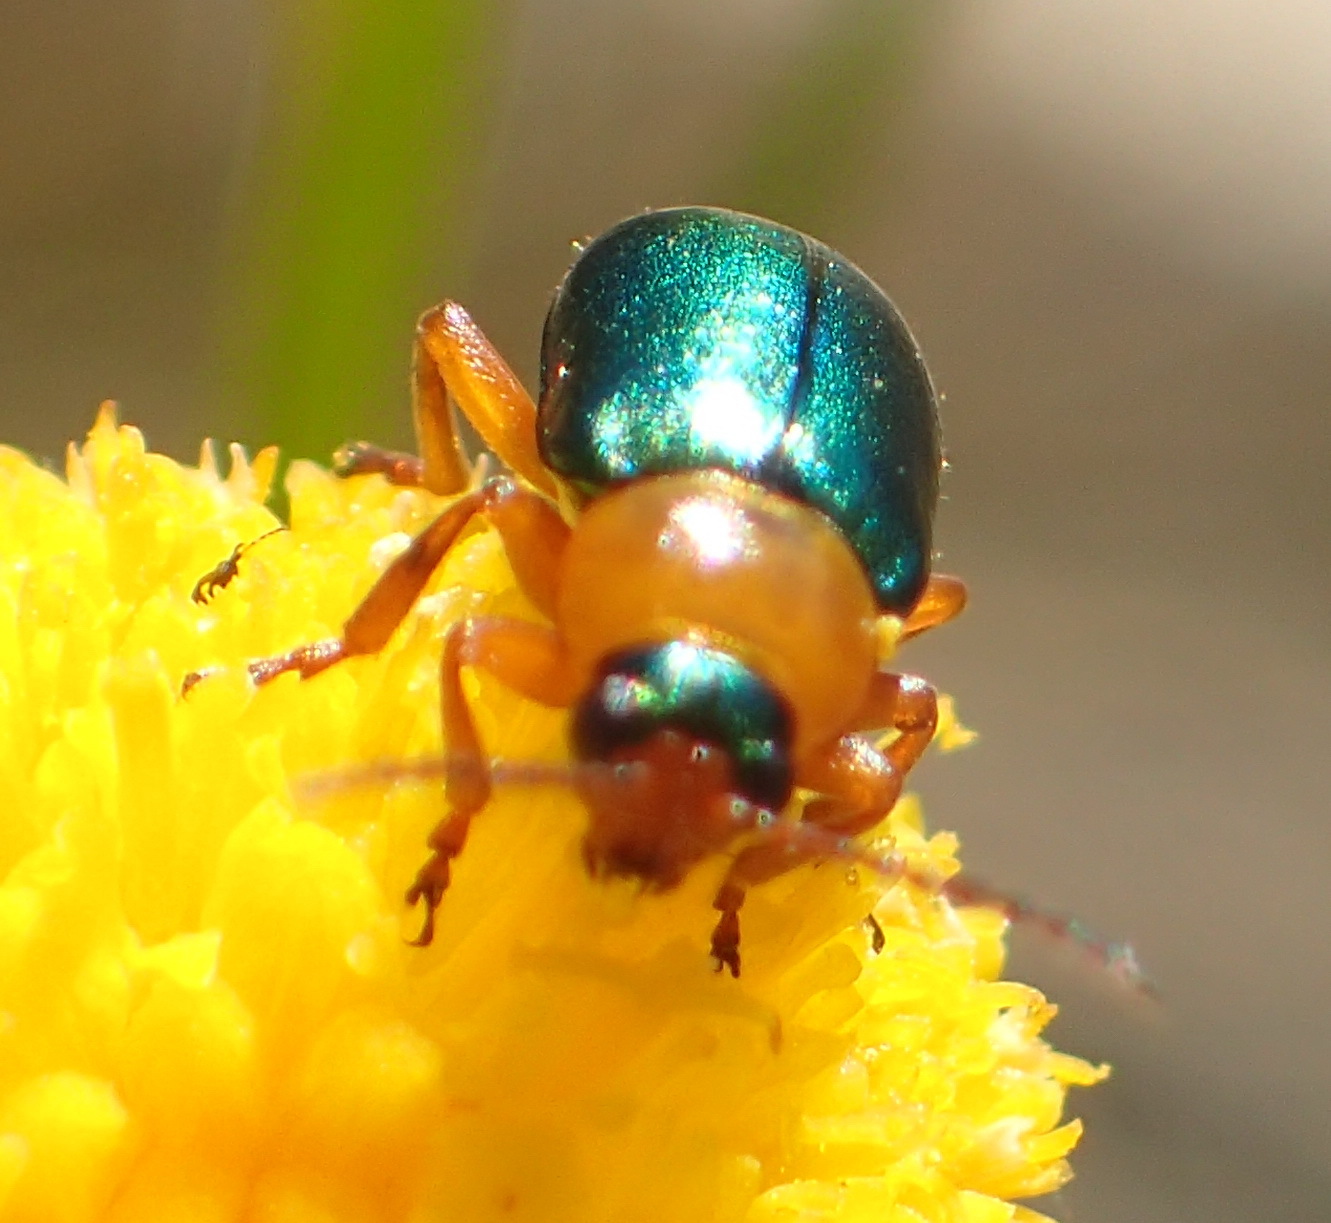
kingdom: Animalia
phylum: Arthropoda
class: Insecta
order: Coleoptera
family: Chrysomelidae
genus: Palaeophylia
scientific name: Palaeophylia
